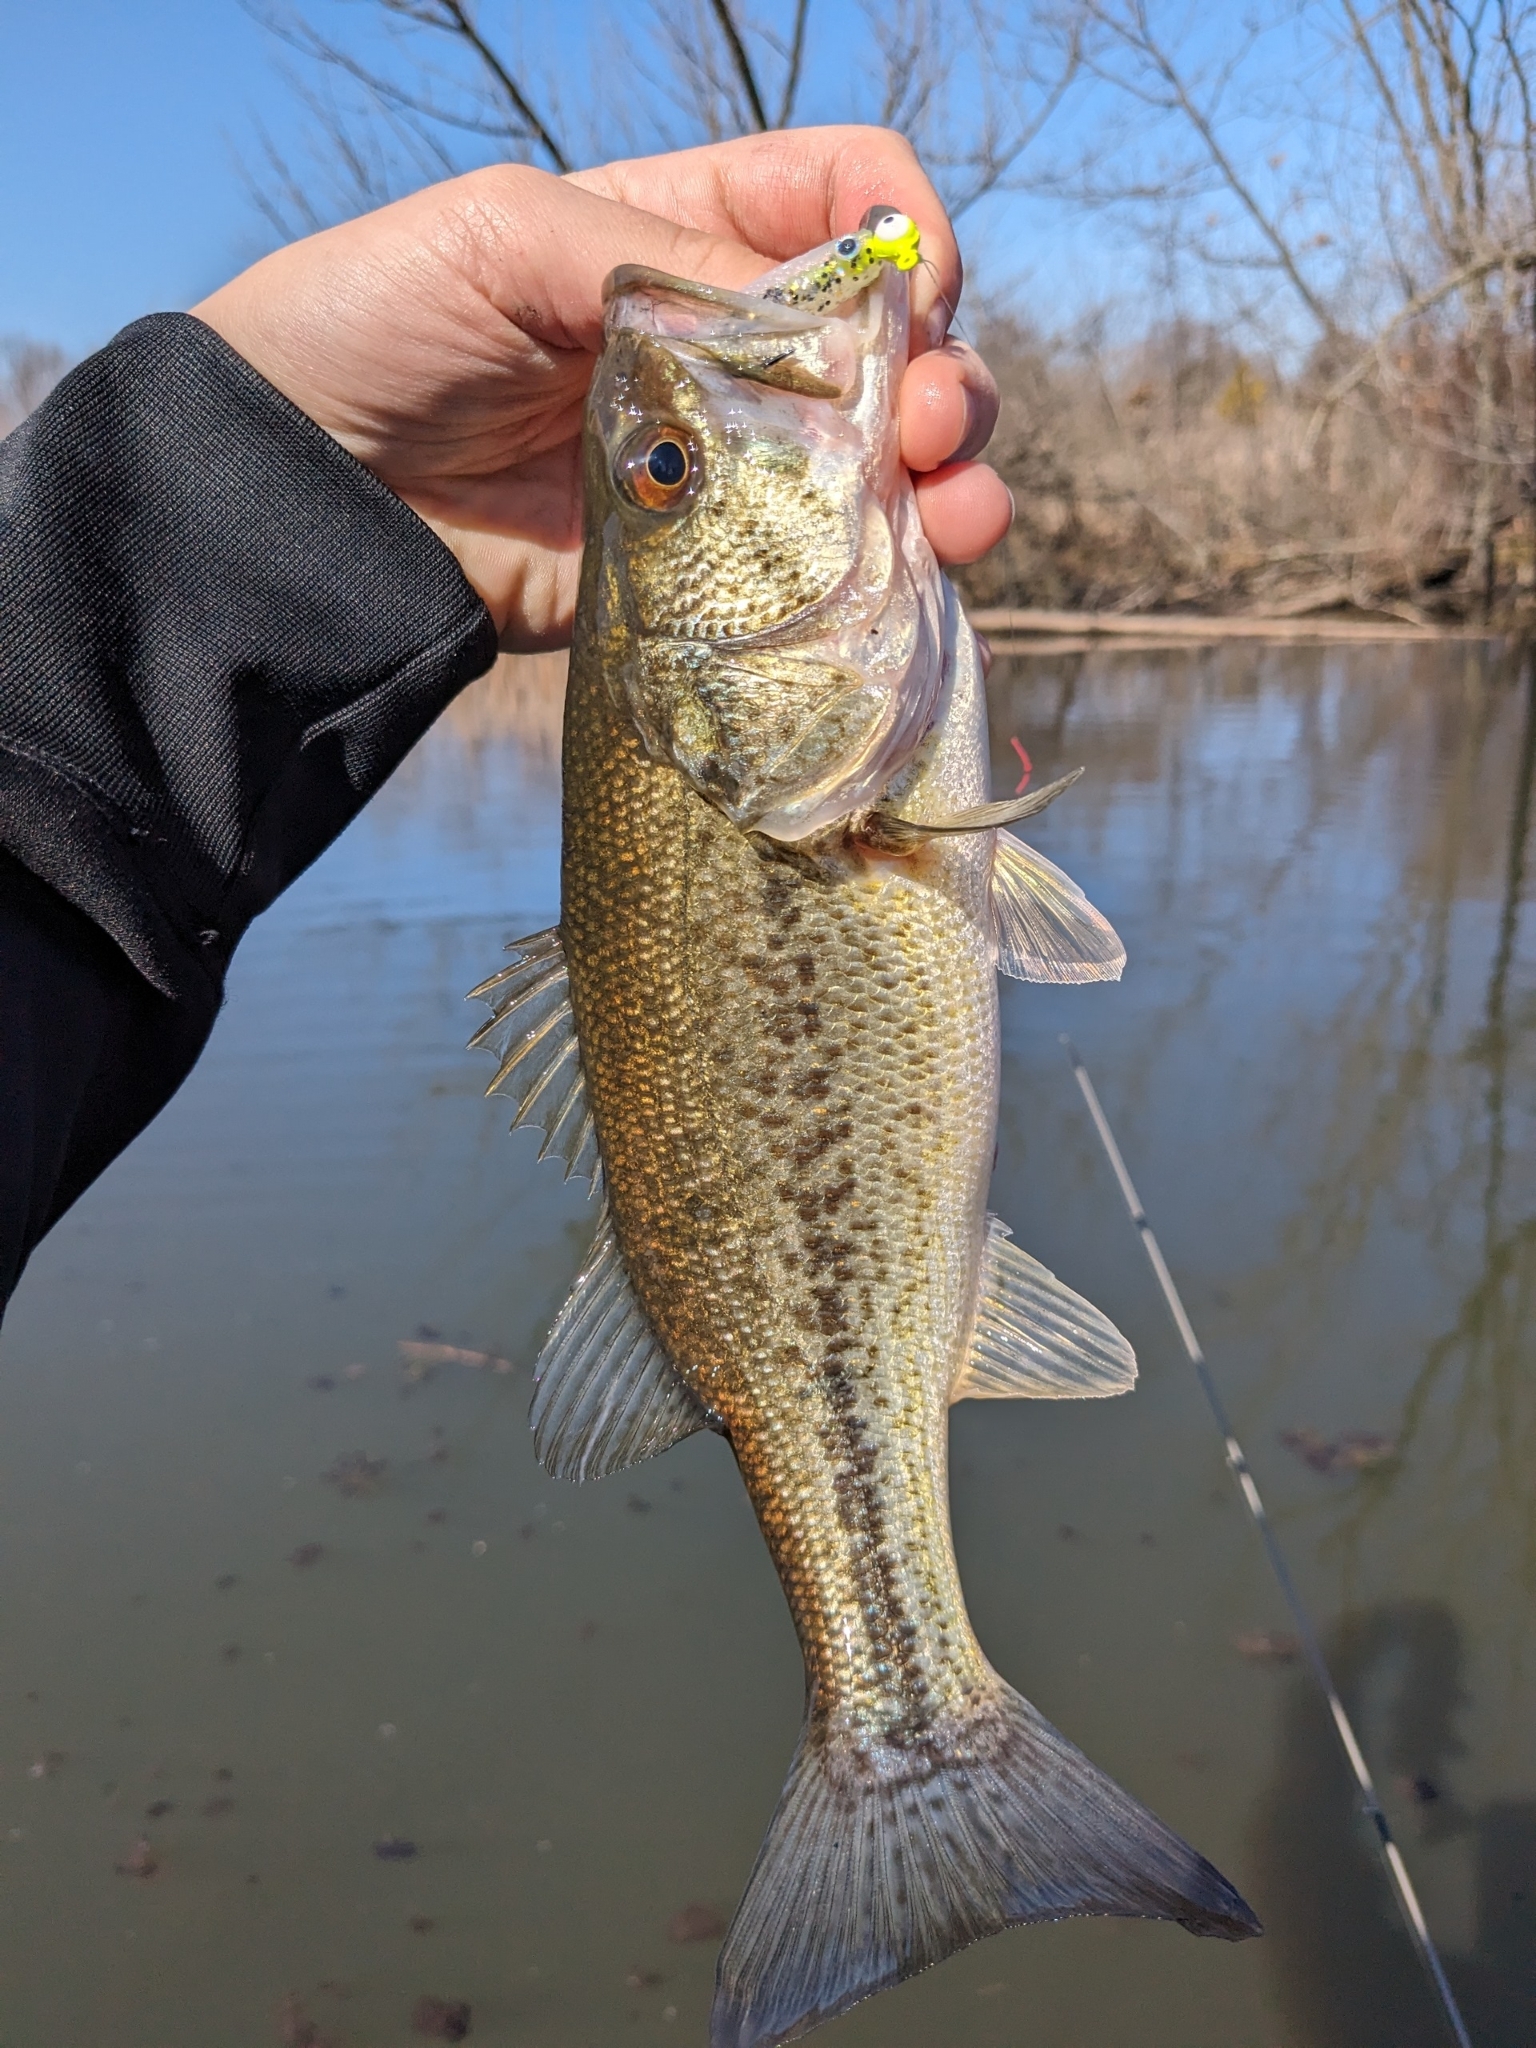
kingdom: Animalia
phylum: Chordata
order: Perciformes
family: Centrarchidae
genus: Micropterus
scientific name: Micropterus
